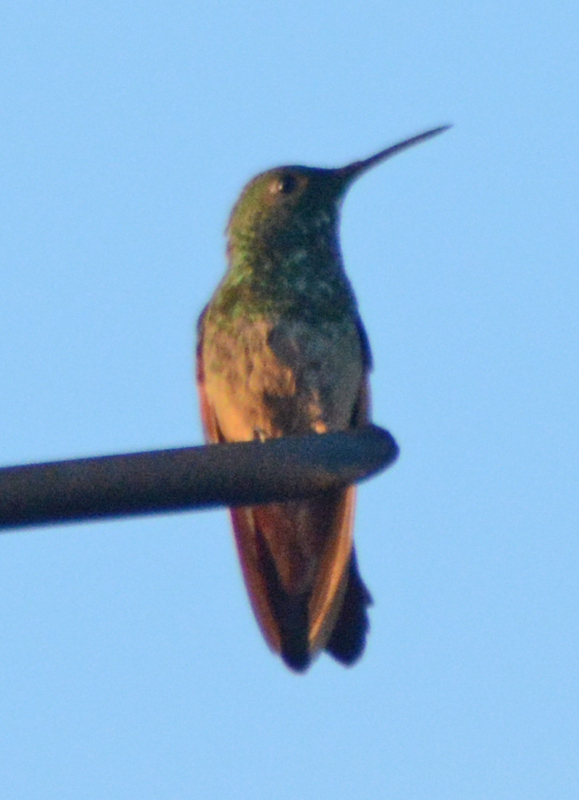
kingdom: Animalia
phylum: Chordata
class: Aves
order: Apodiformes
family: Trochilidae
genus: Saucerottia
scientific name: Saucerottia beryllina
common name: Berylline hummingbird
